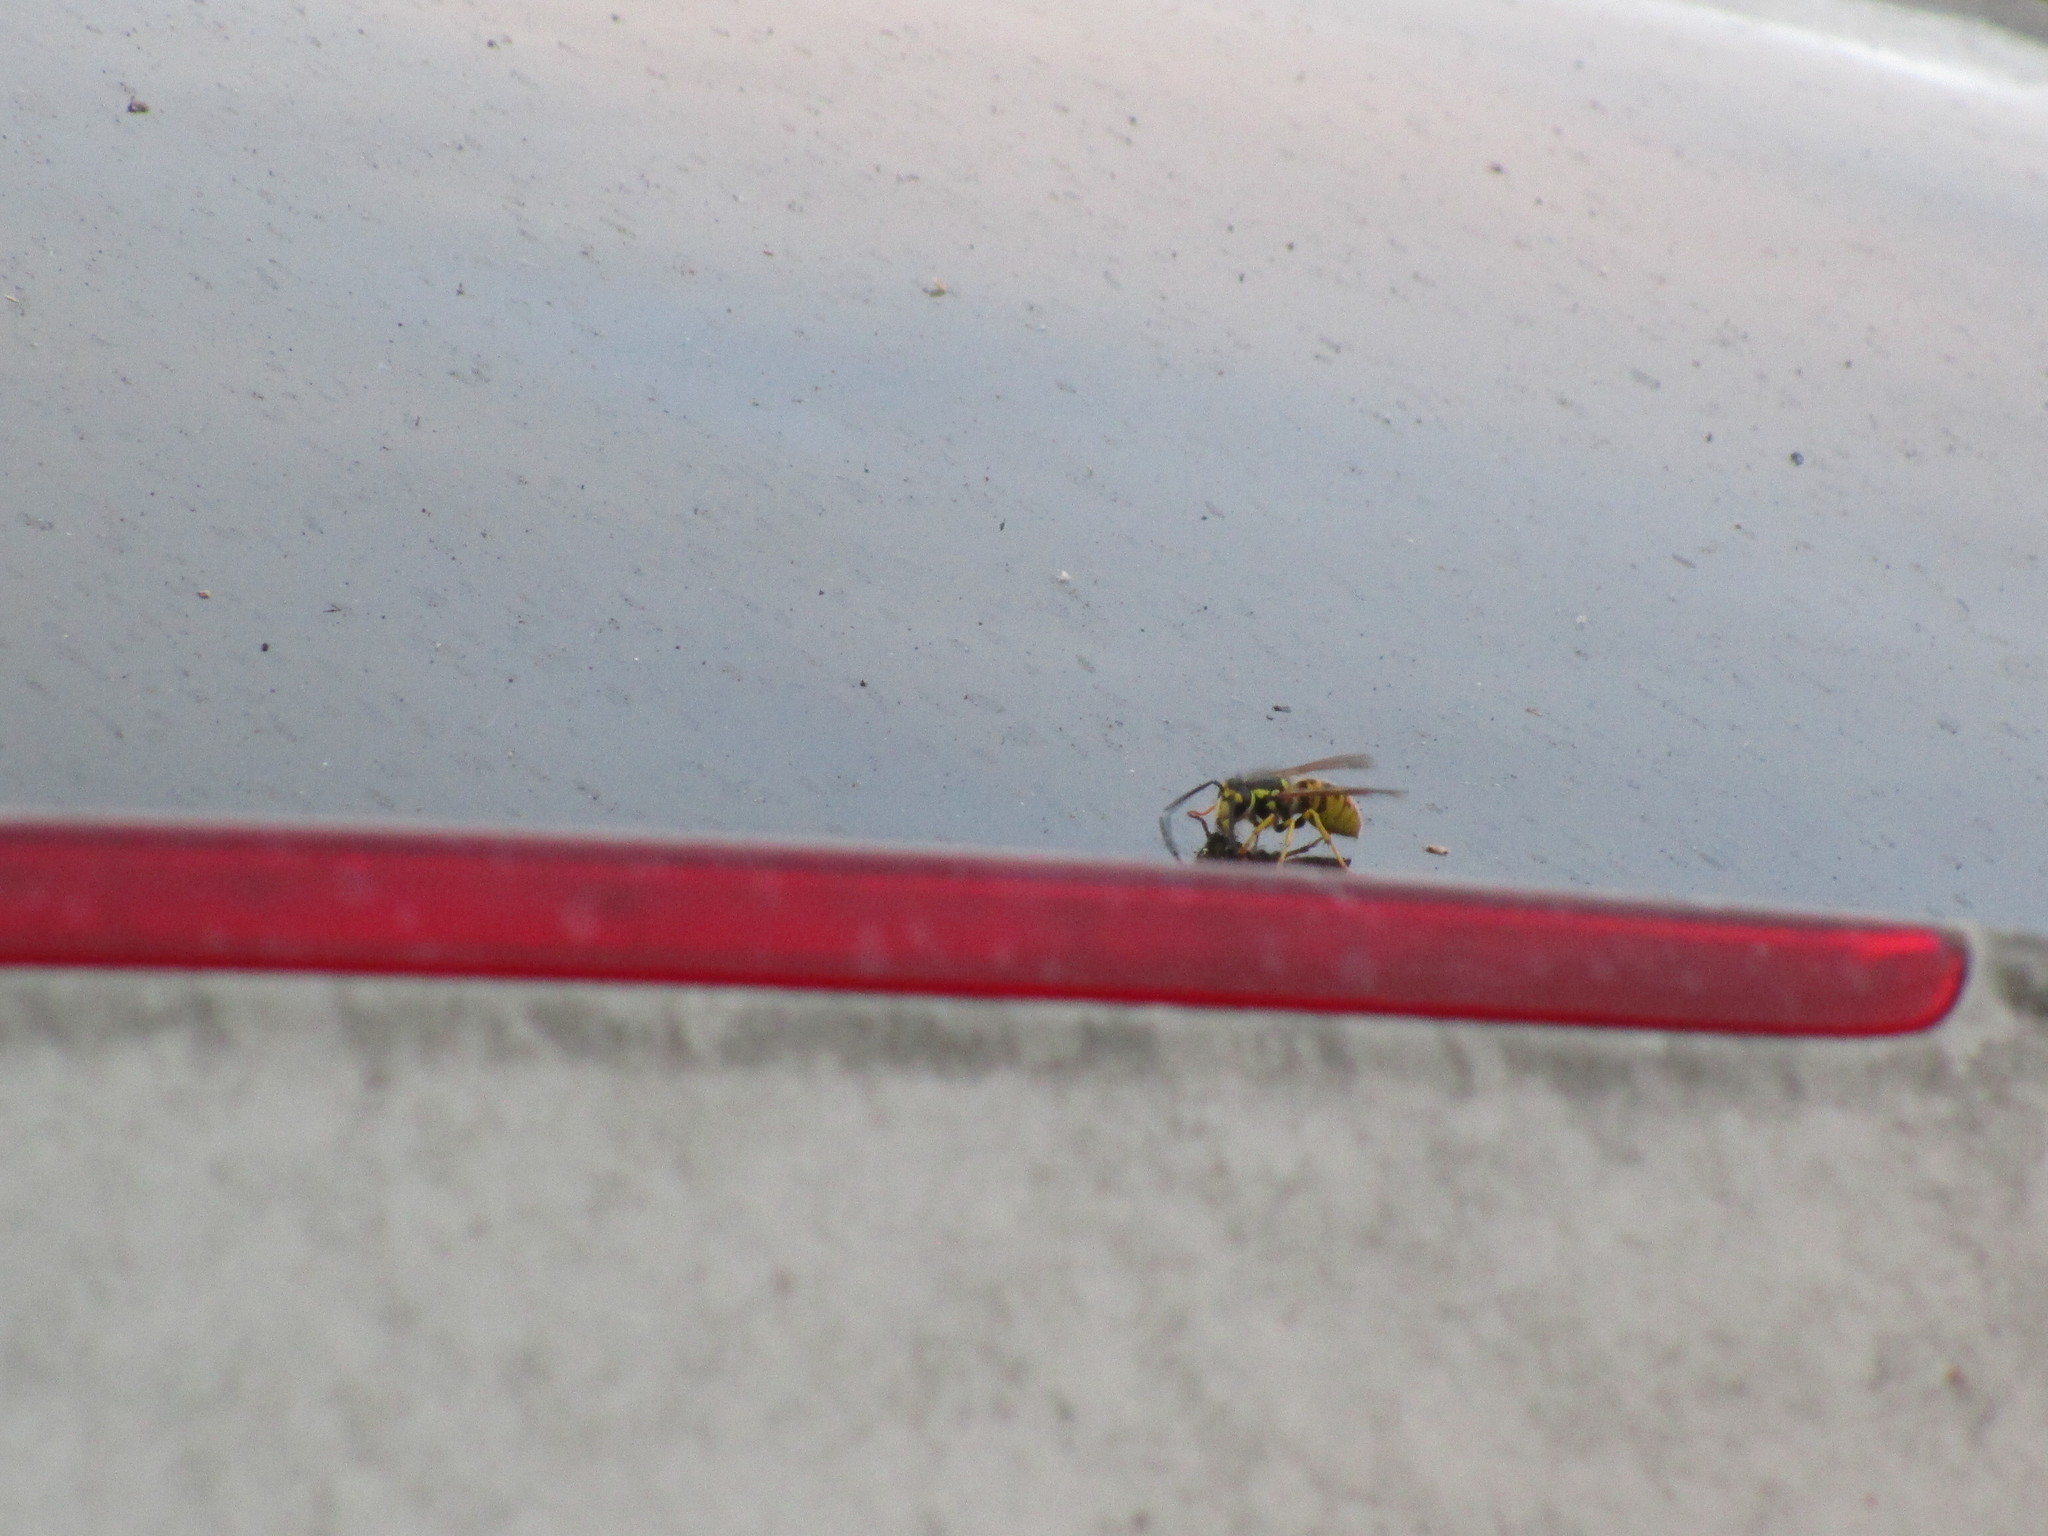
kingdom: Animalia
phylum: Arthropoda
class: Insecta
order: Hymenoptera
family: Vespidae
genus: Vespula
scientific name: Vespula germanica
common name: German wasp
